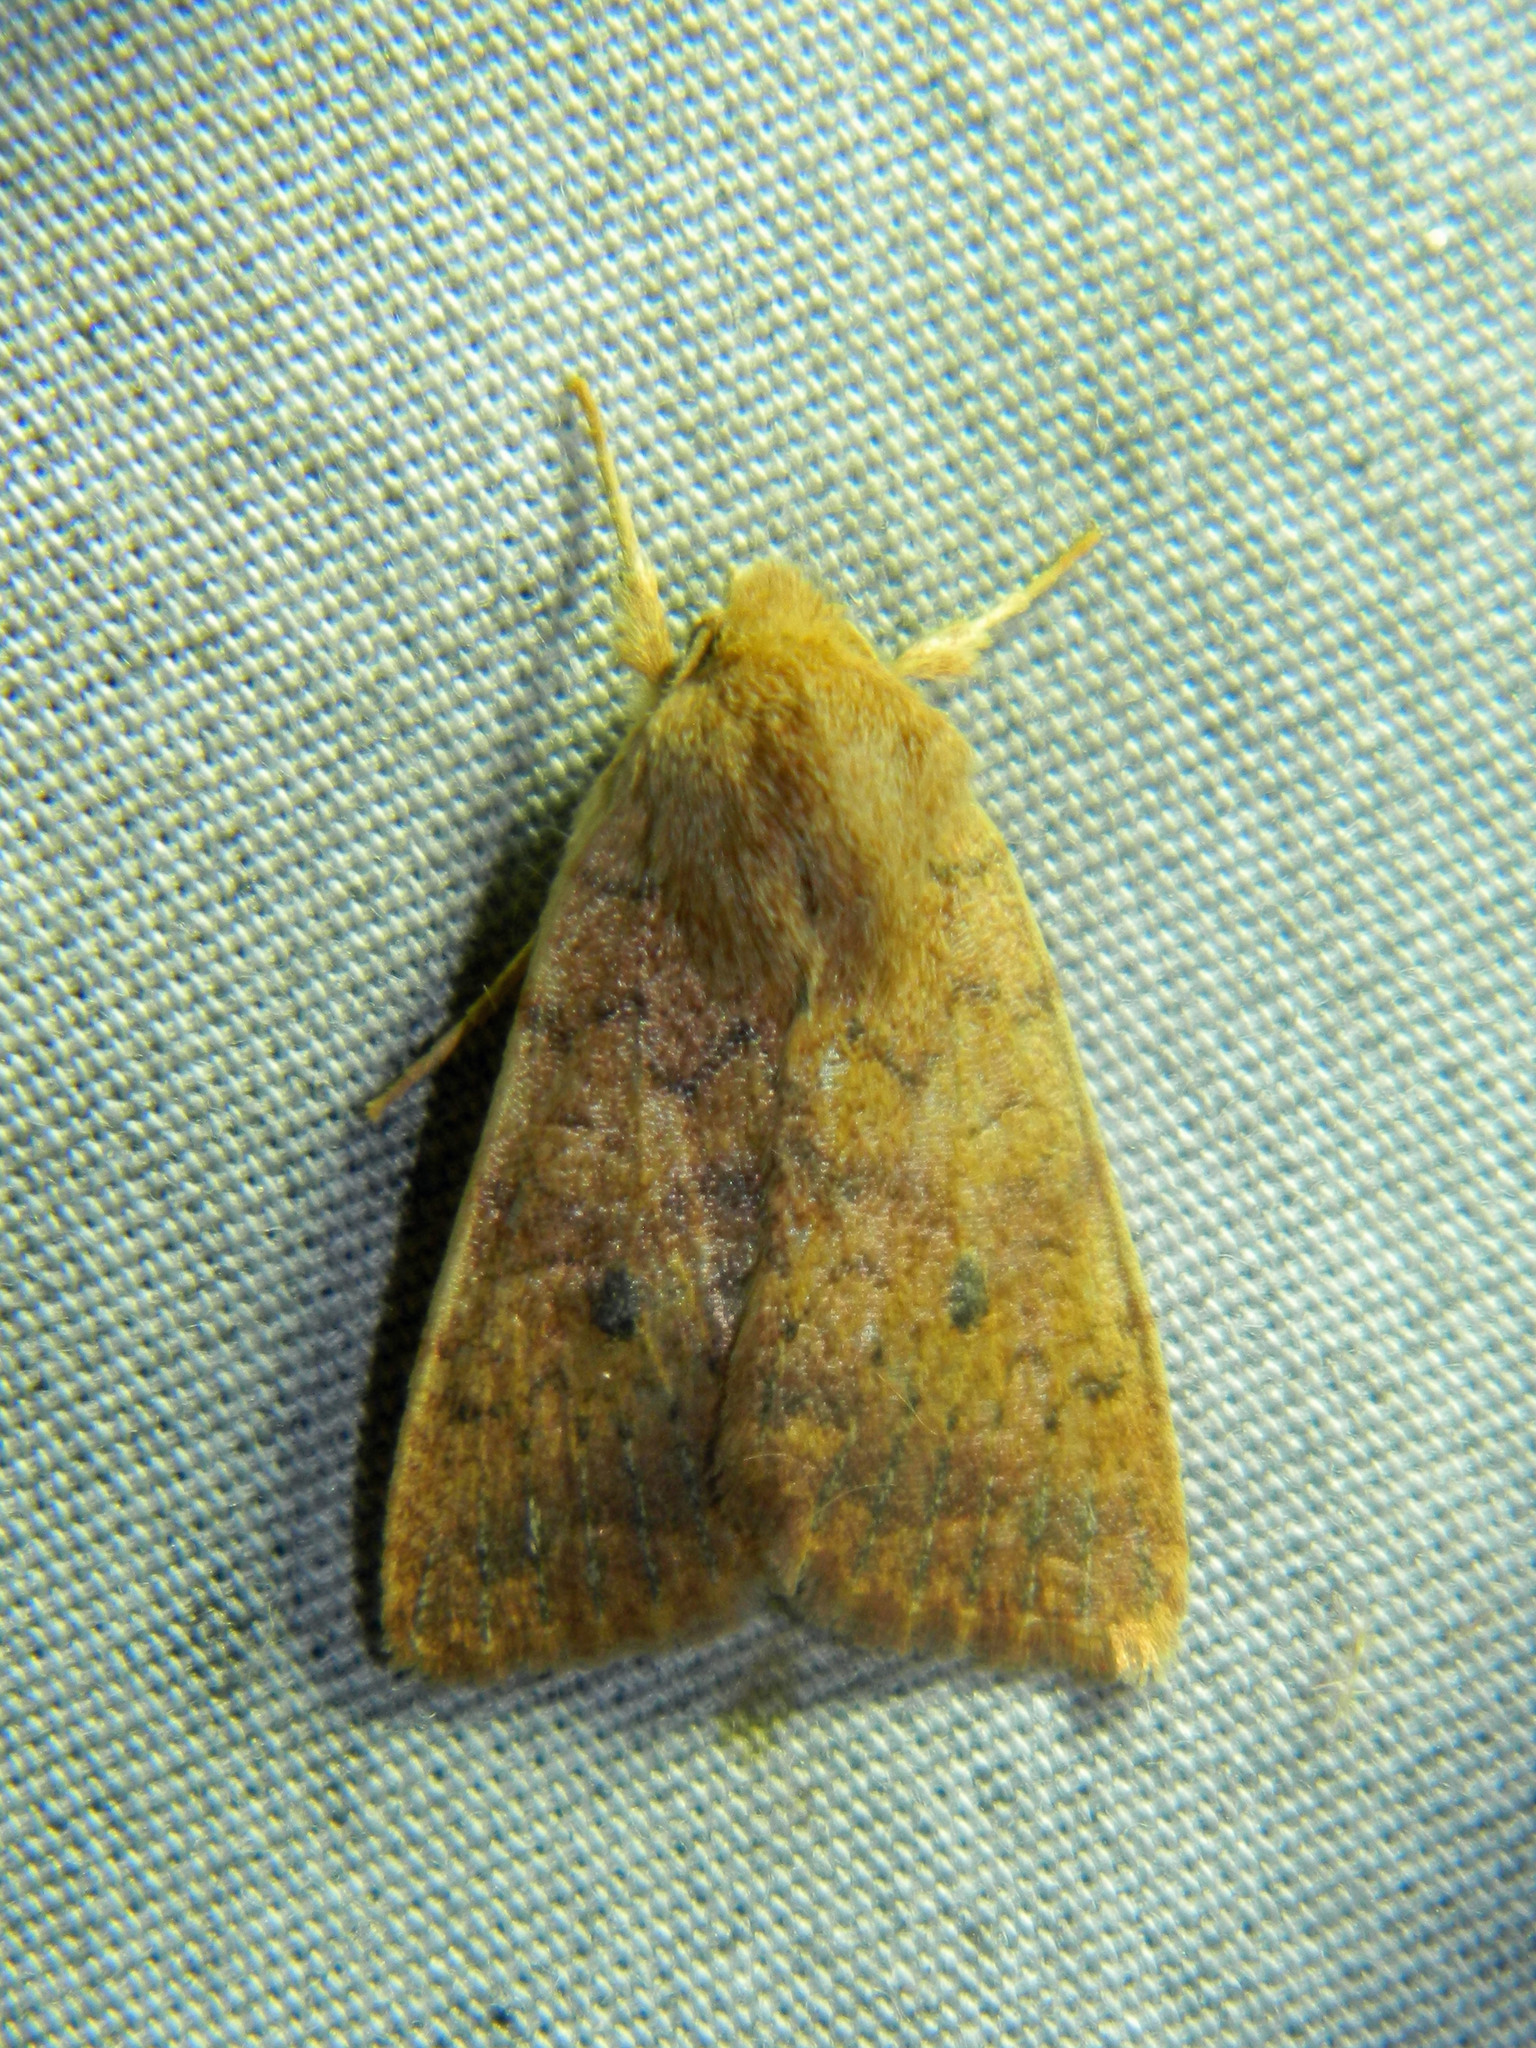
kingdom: Animalia
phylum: Arthropoda
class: Insecta
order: Lepidoptera
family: Noctuidae
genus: Agrochola
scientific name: Agrochola bicolorago
